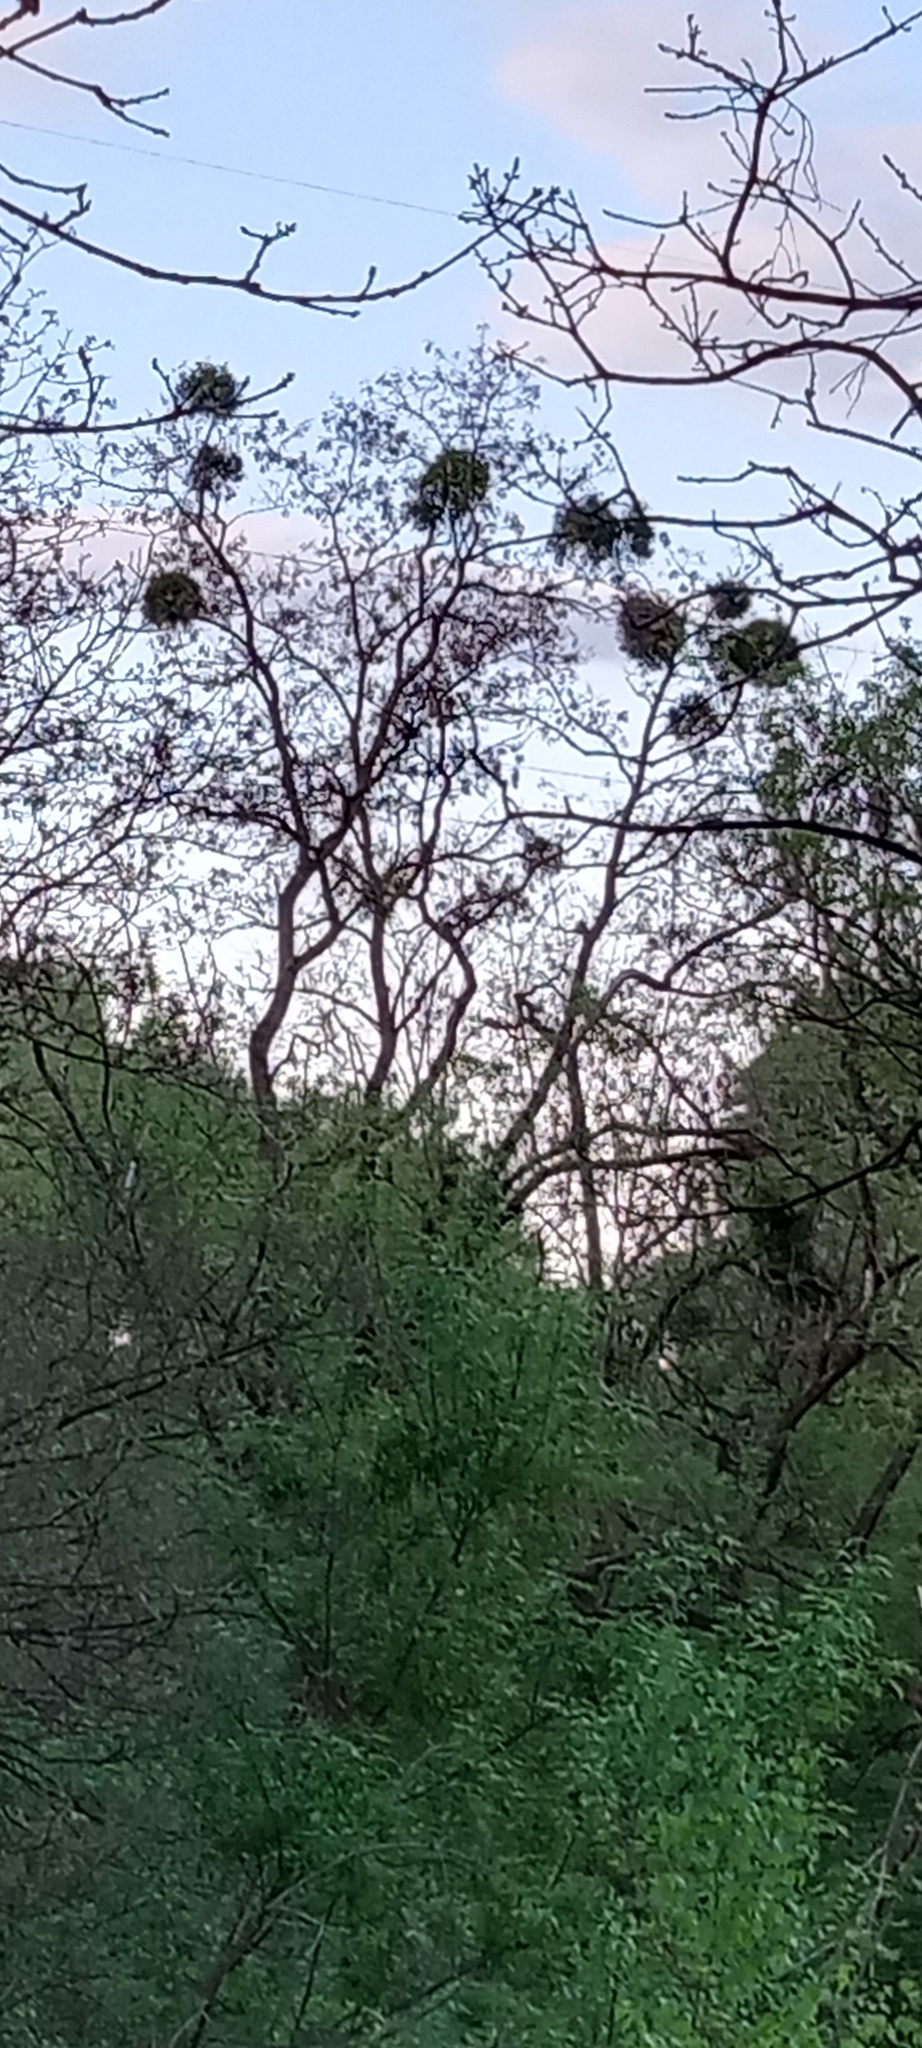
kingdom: Plantae
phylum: Tracheophyta
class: Magnoliopsida
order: Santalales
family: Viscaceae
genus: Viscum
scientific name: Viscum album
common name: Mistletoe
